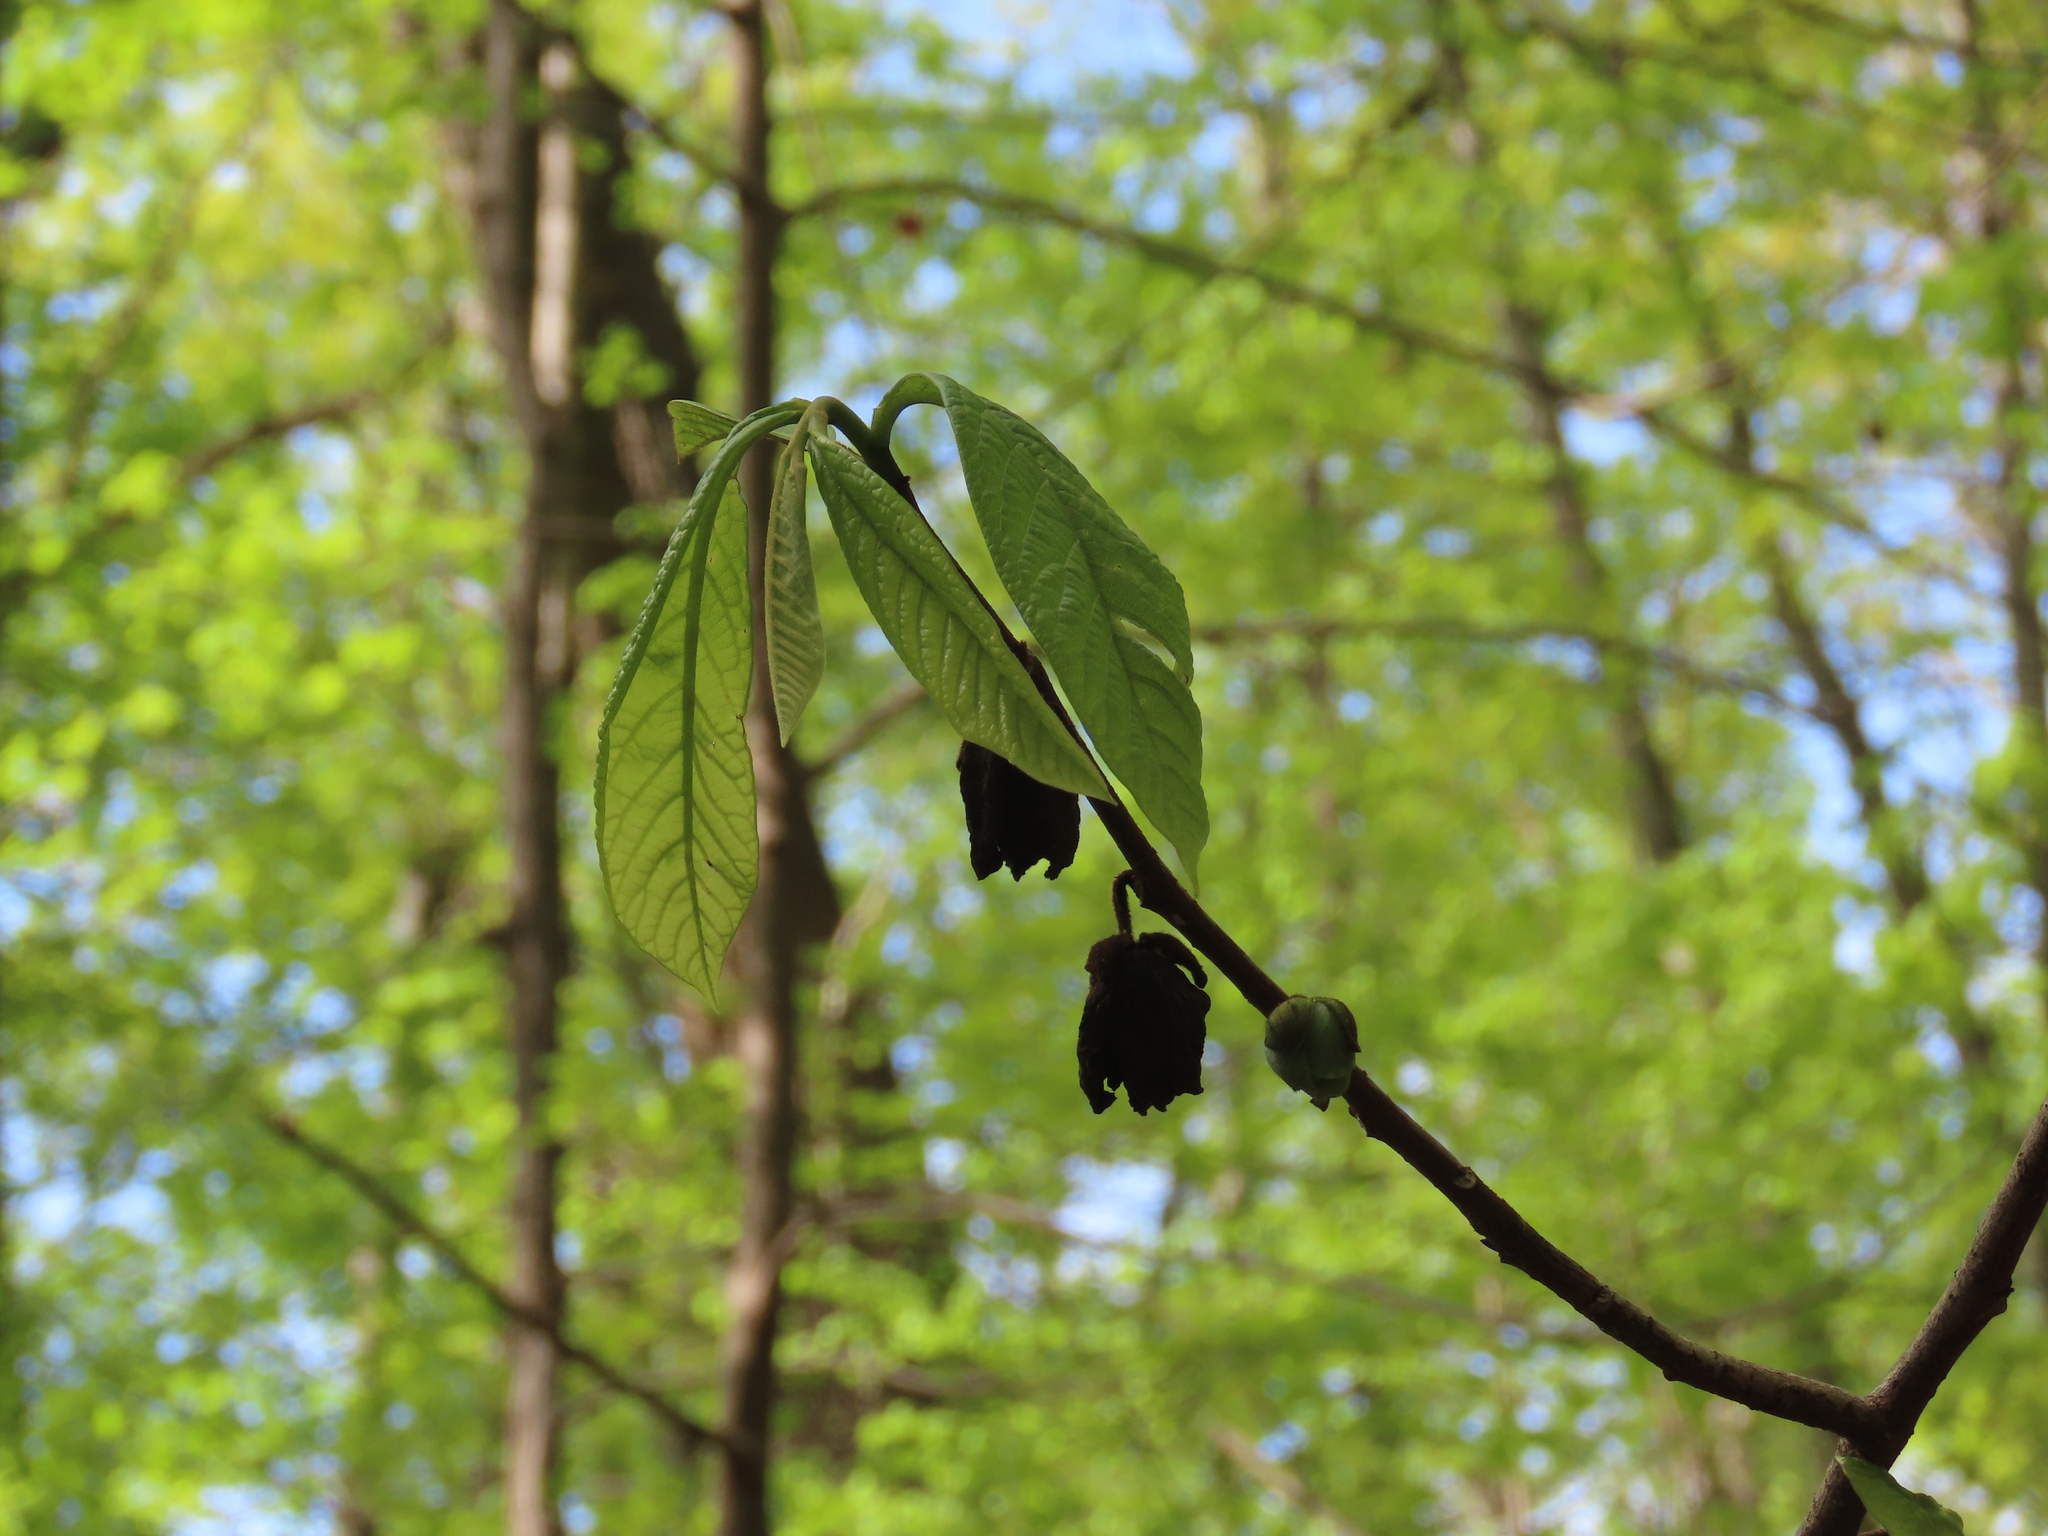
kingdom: Plantae
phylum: Tracheophyta
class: Magnoliopsida
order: Magnoliales
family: Annonaceae
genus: Asimina
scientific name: Asimina triloba
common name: Dog-banana
